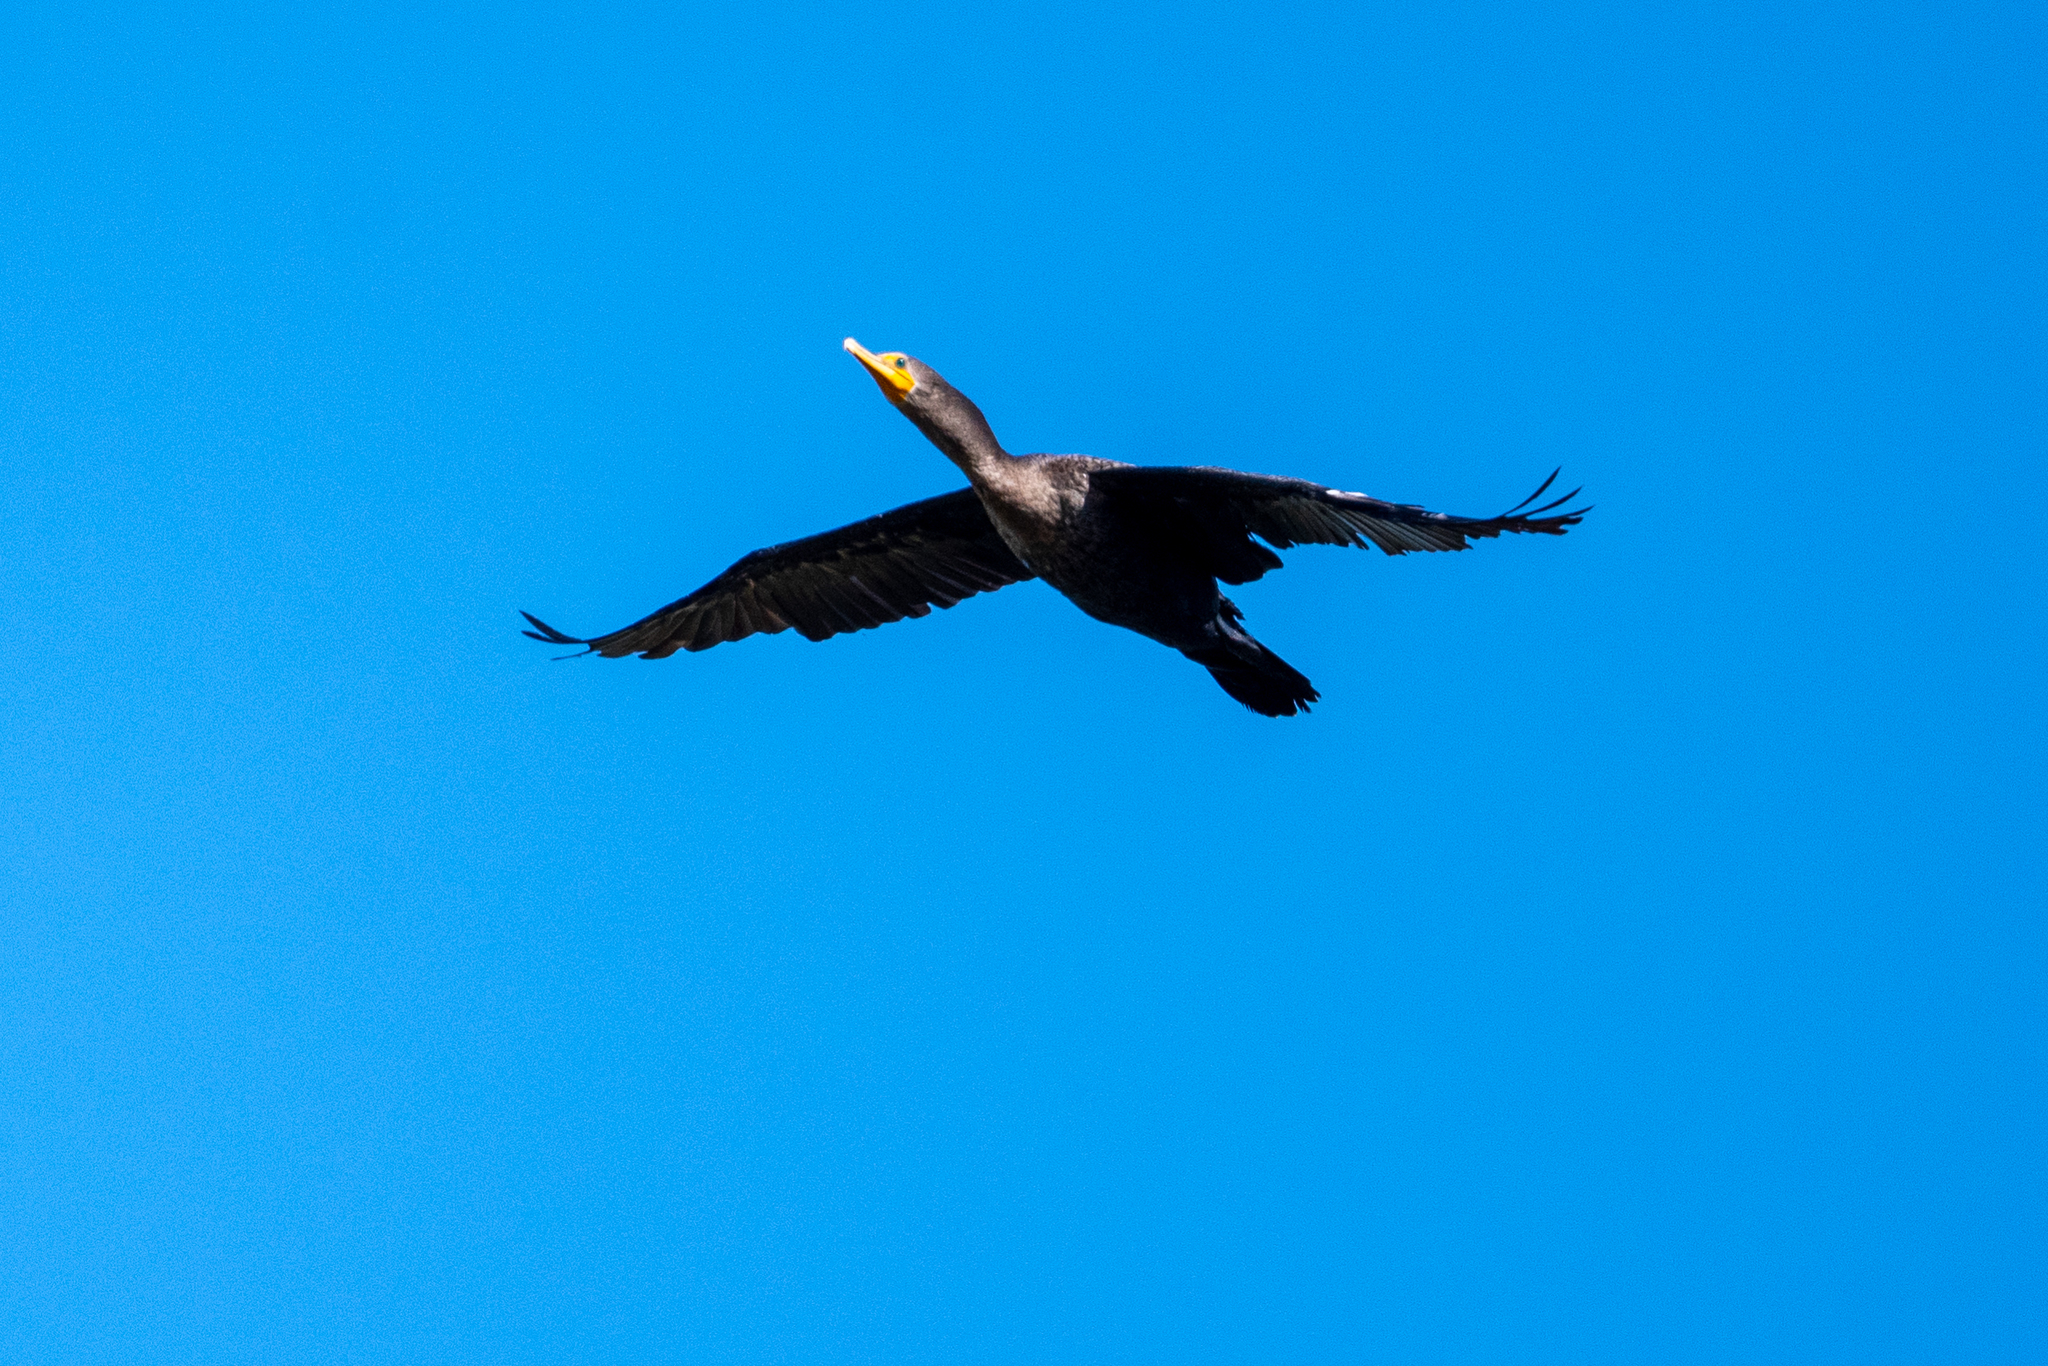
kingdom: Animalia
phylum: Chordata
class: Aves
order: Suliformes
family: Phalacrocoracidae
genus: Phalacrocorax
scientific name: Phalacrocorax auritus
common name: Double-crested cormorant
